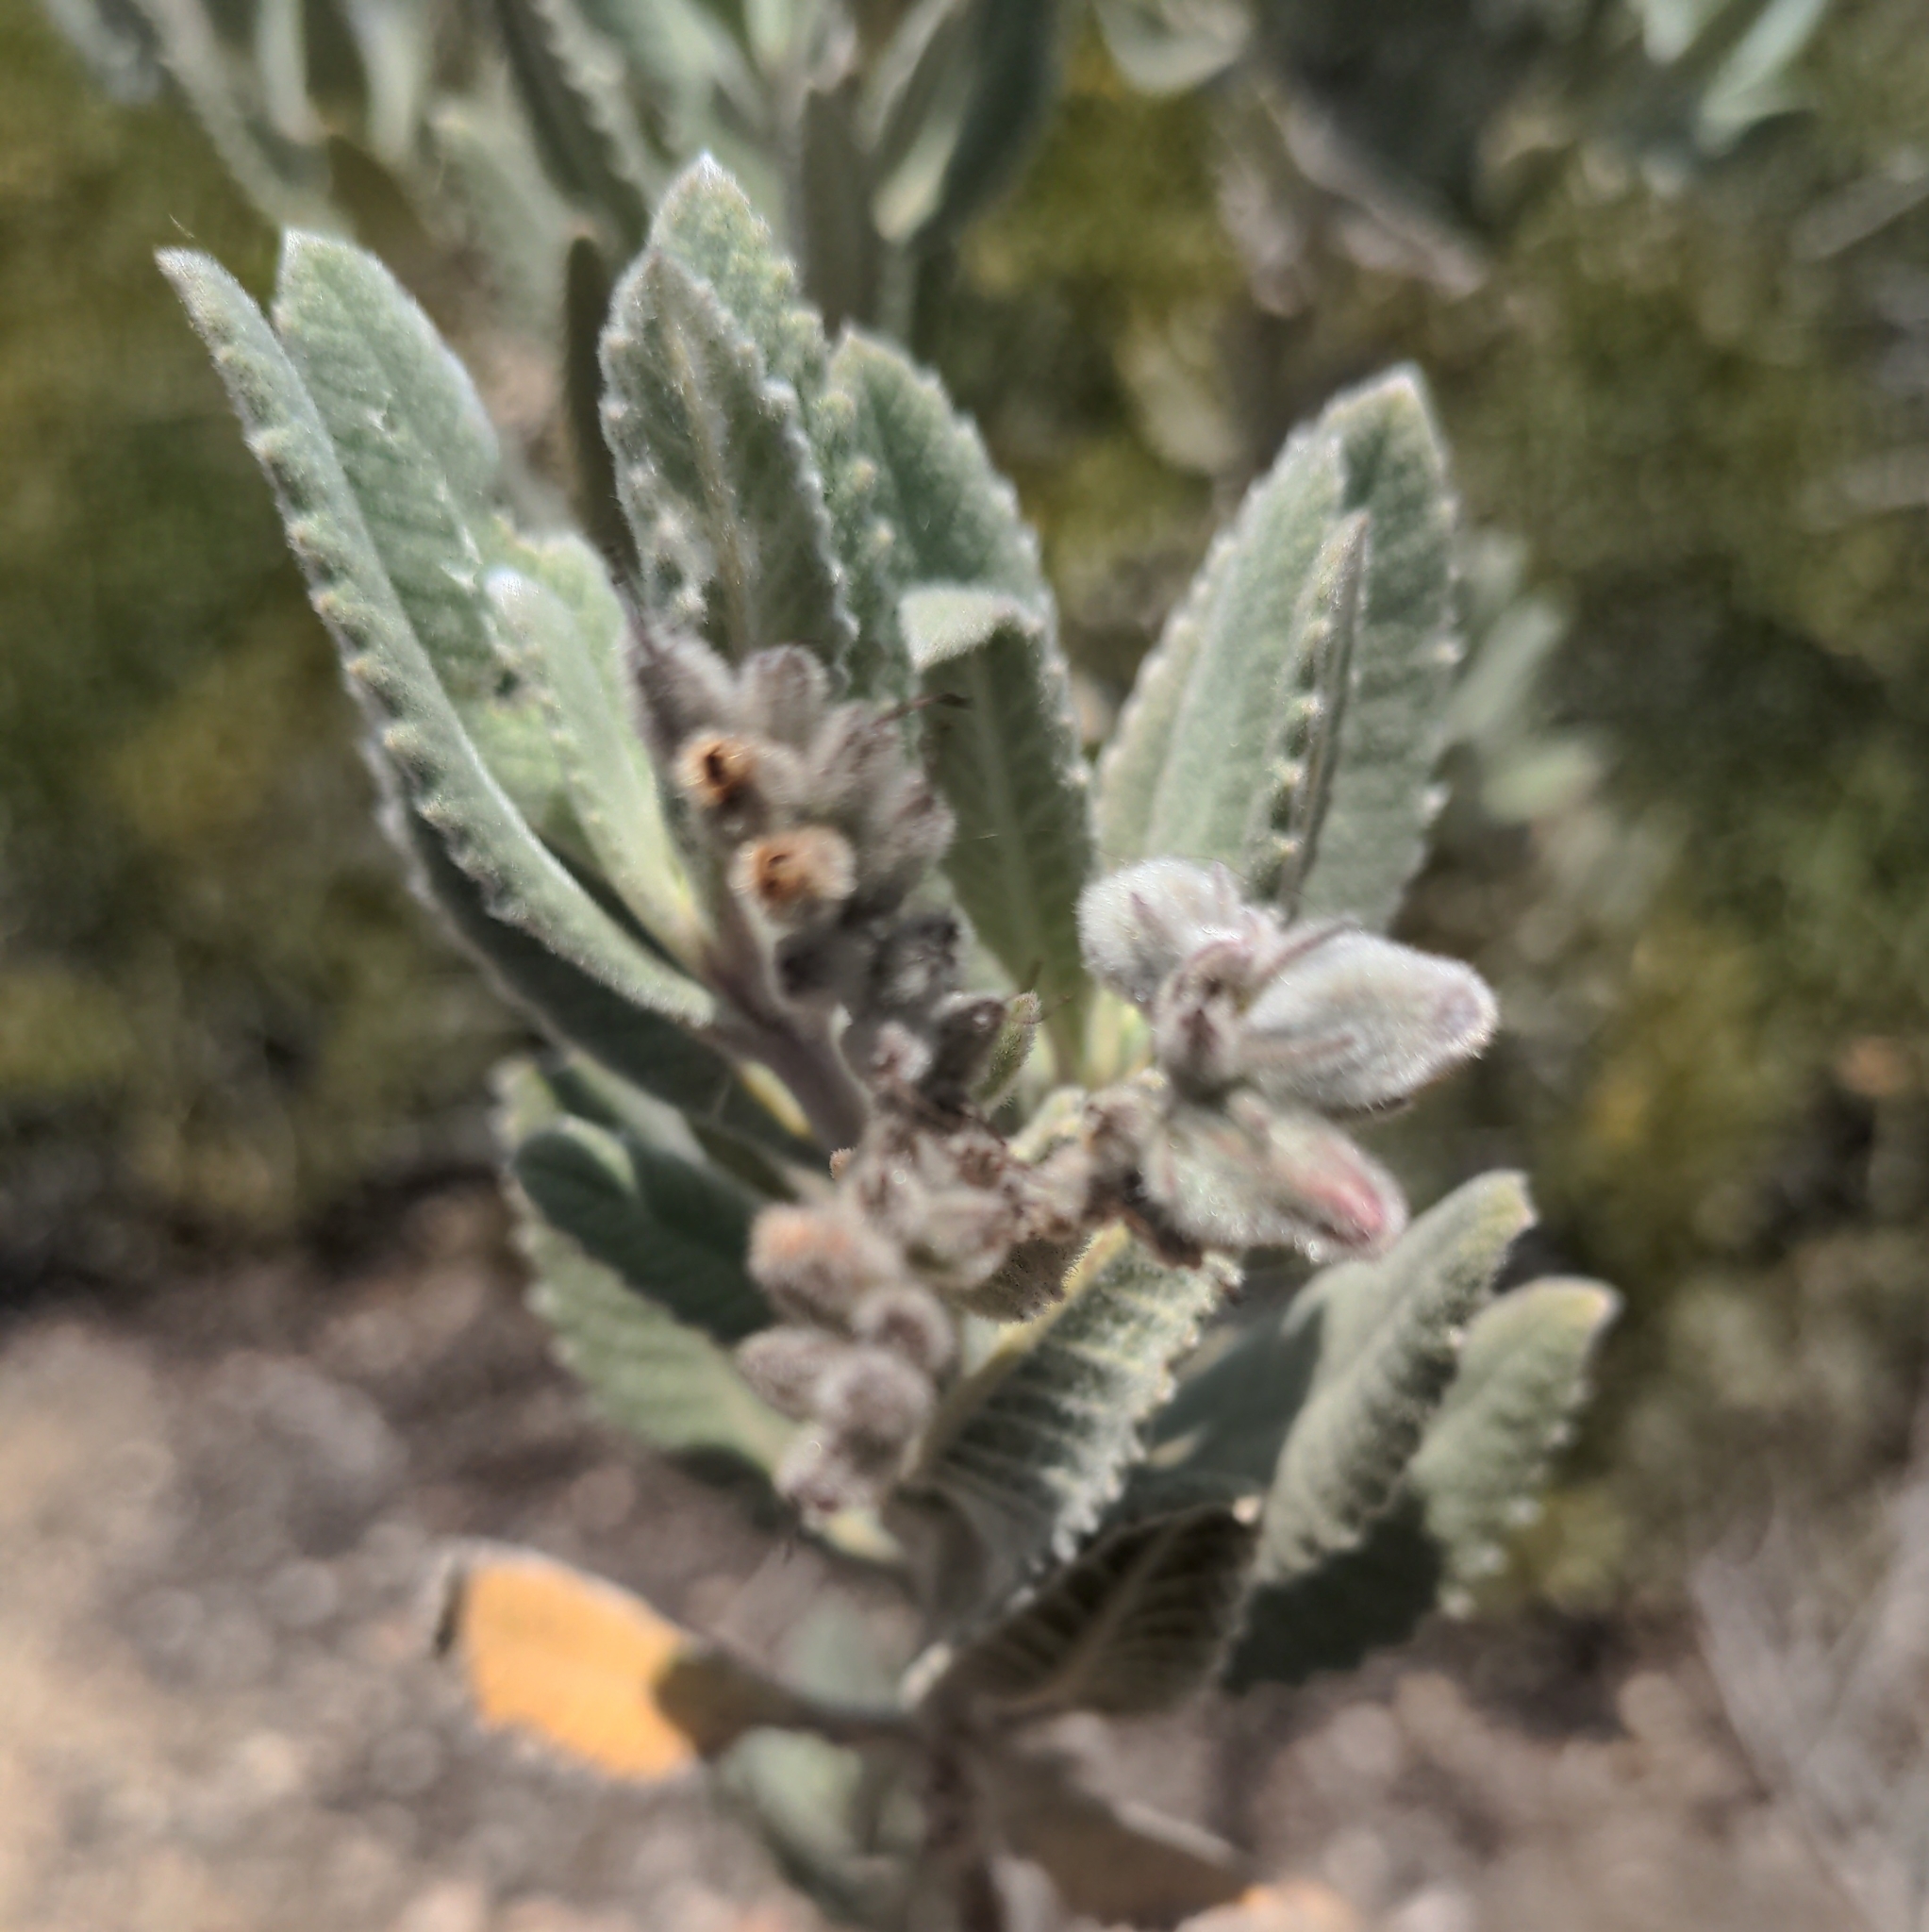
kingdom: Plantae
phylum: Tracheophyta
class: Magnoliopsida
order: Boraginales
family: Namaceae
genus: Eriodictyon
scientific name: Eriodictyon crassifolium
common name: Thick-leaf yerba-santa
